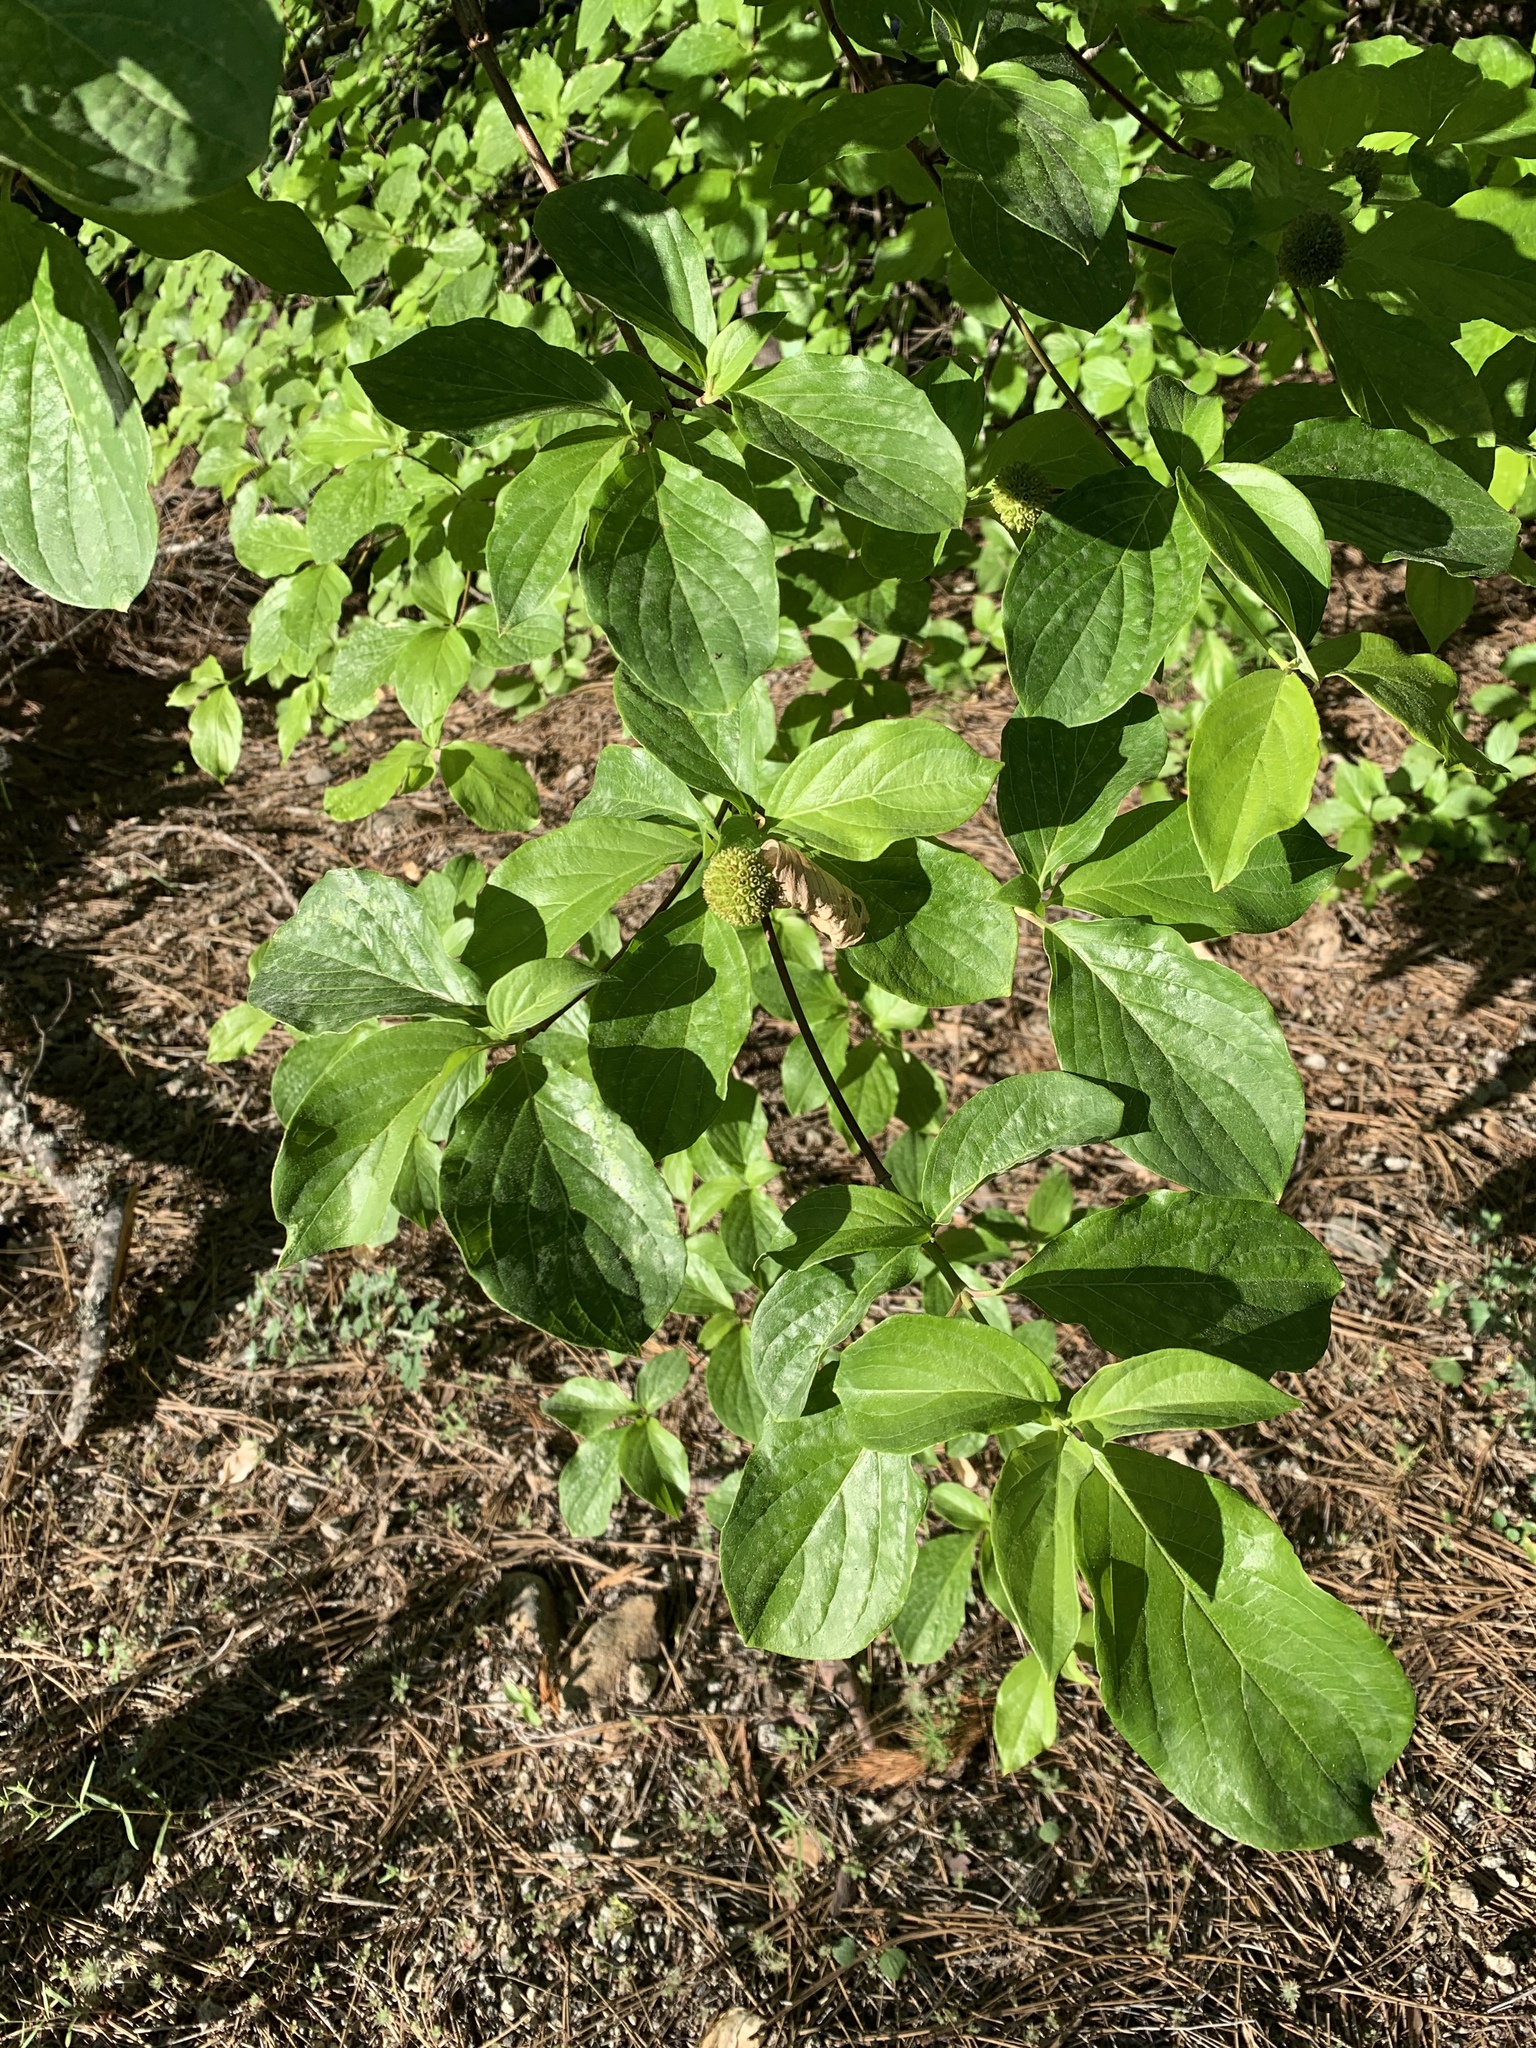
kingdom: Plantae
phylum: Tracheophyta
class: Magnoliopsida
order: Cornales
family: Cornaceae
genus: Cornus
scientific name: Cornus nuttallii
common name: Pacific dogwood
